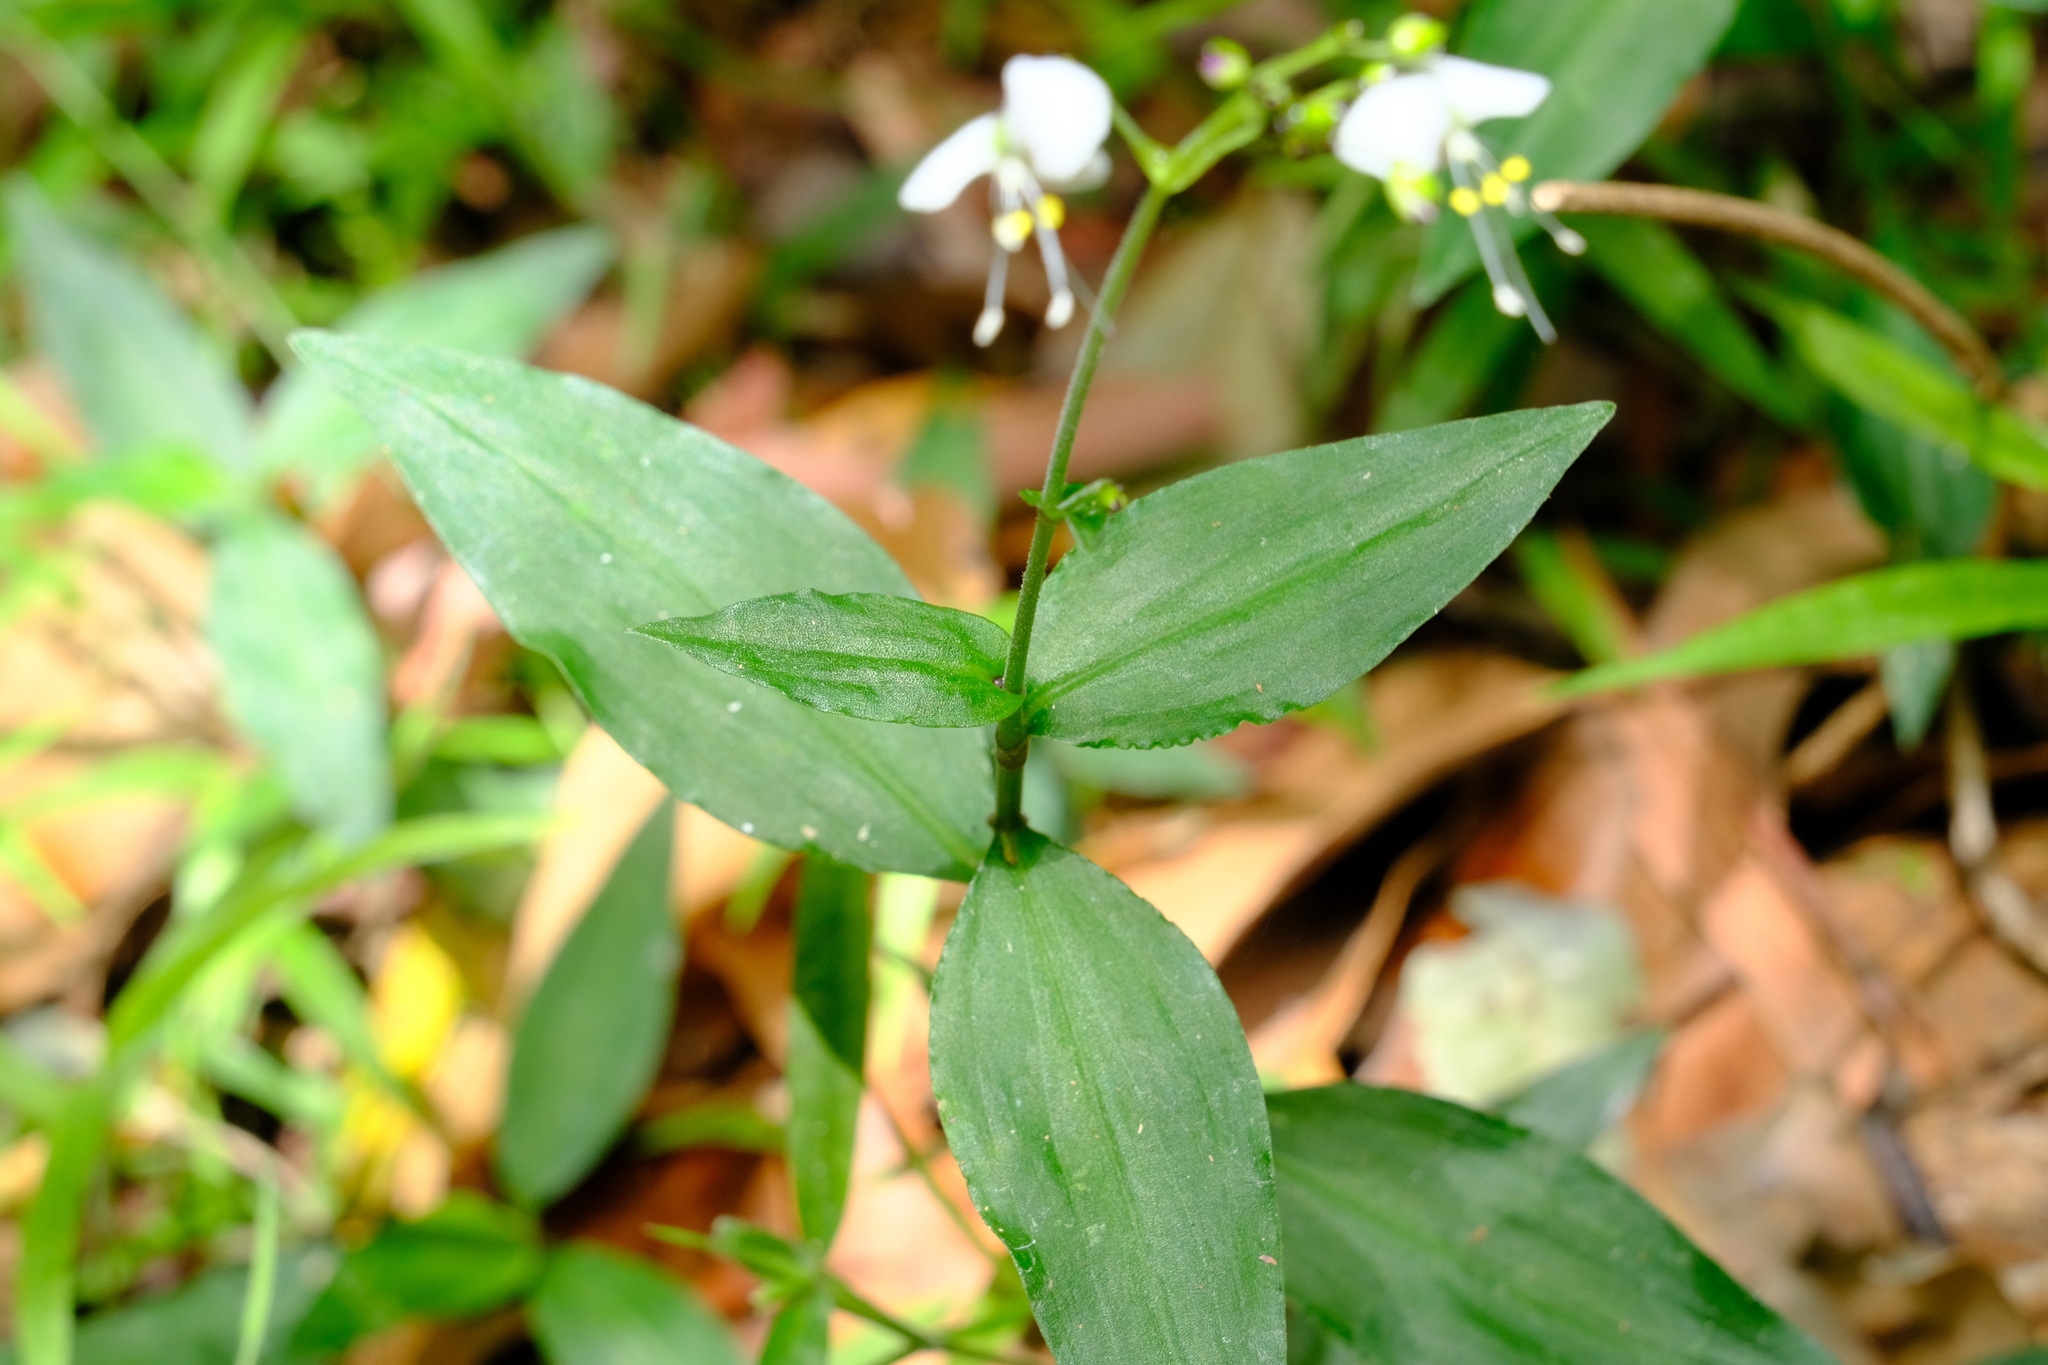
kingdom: Plantae
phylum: Tracheophyta
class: Liliopsida
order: Commelinales
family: Commelinaceae
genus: Aneilema
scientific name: Aneilema acuminatum
